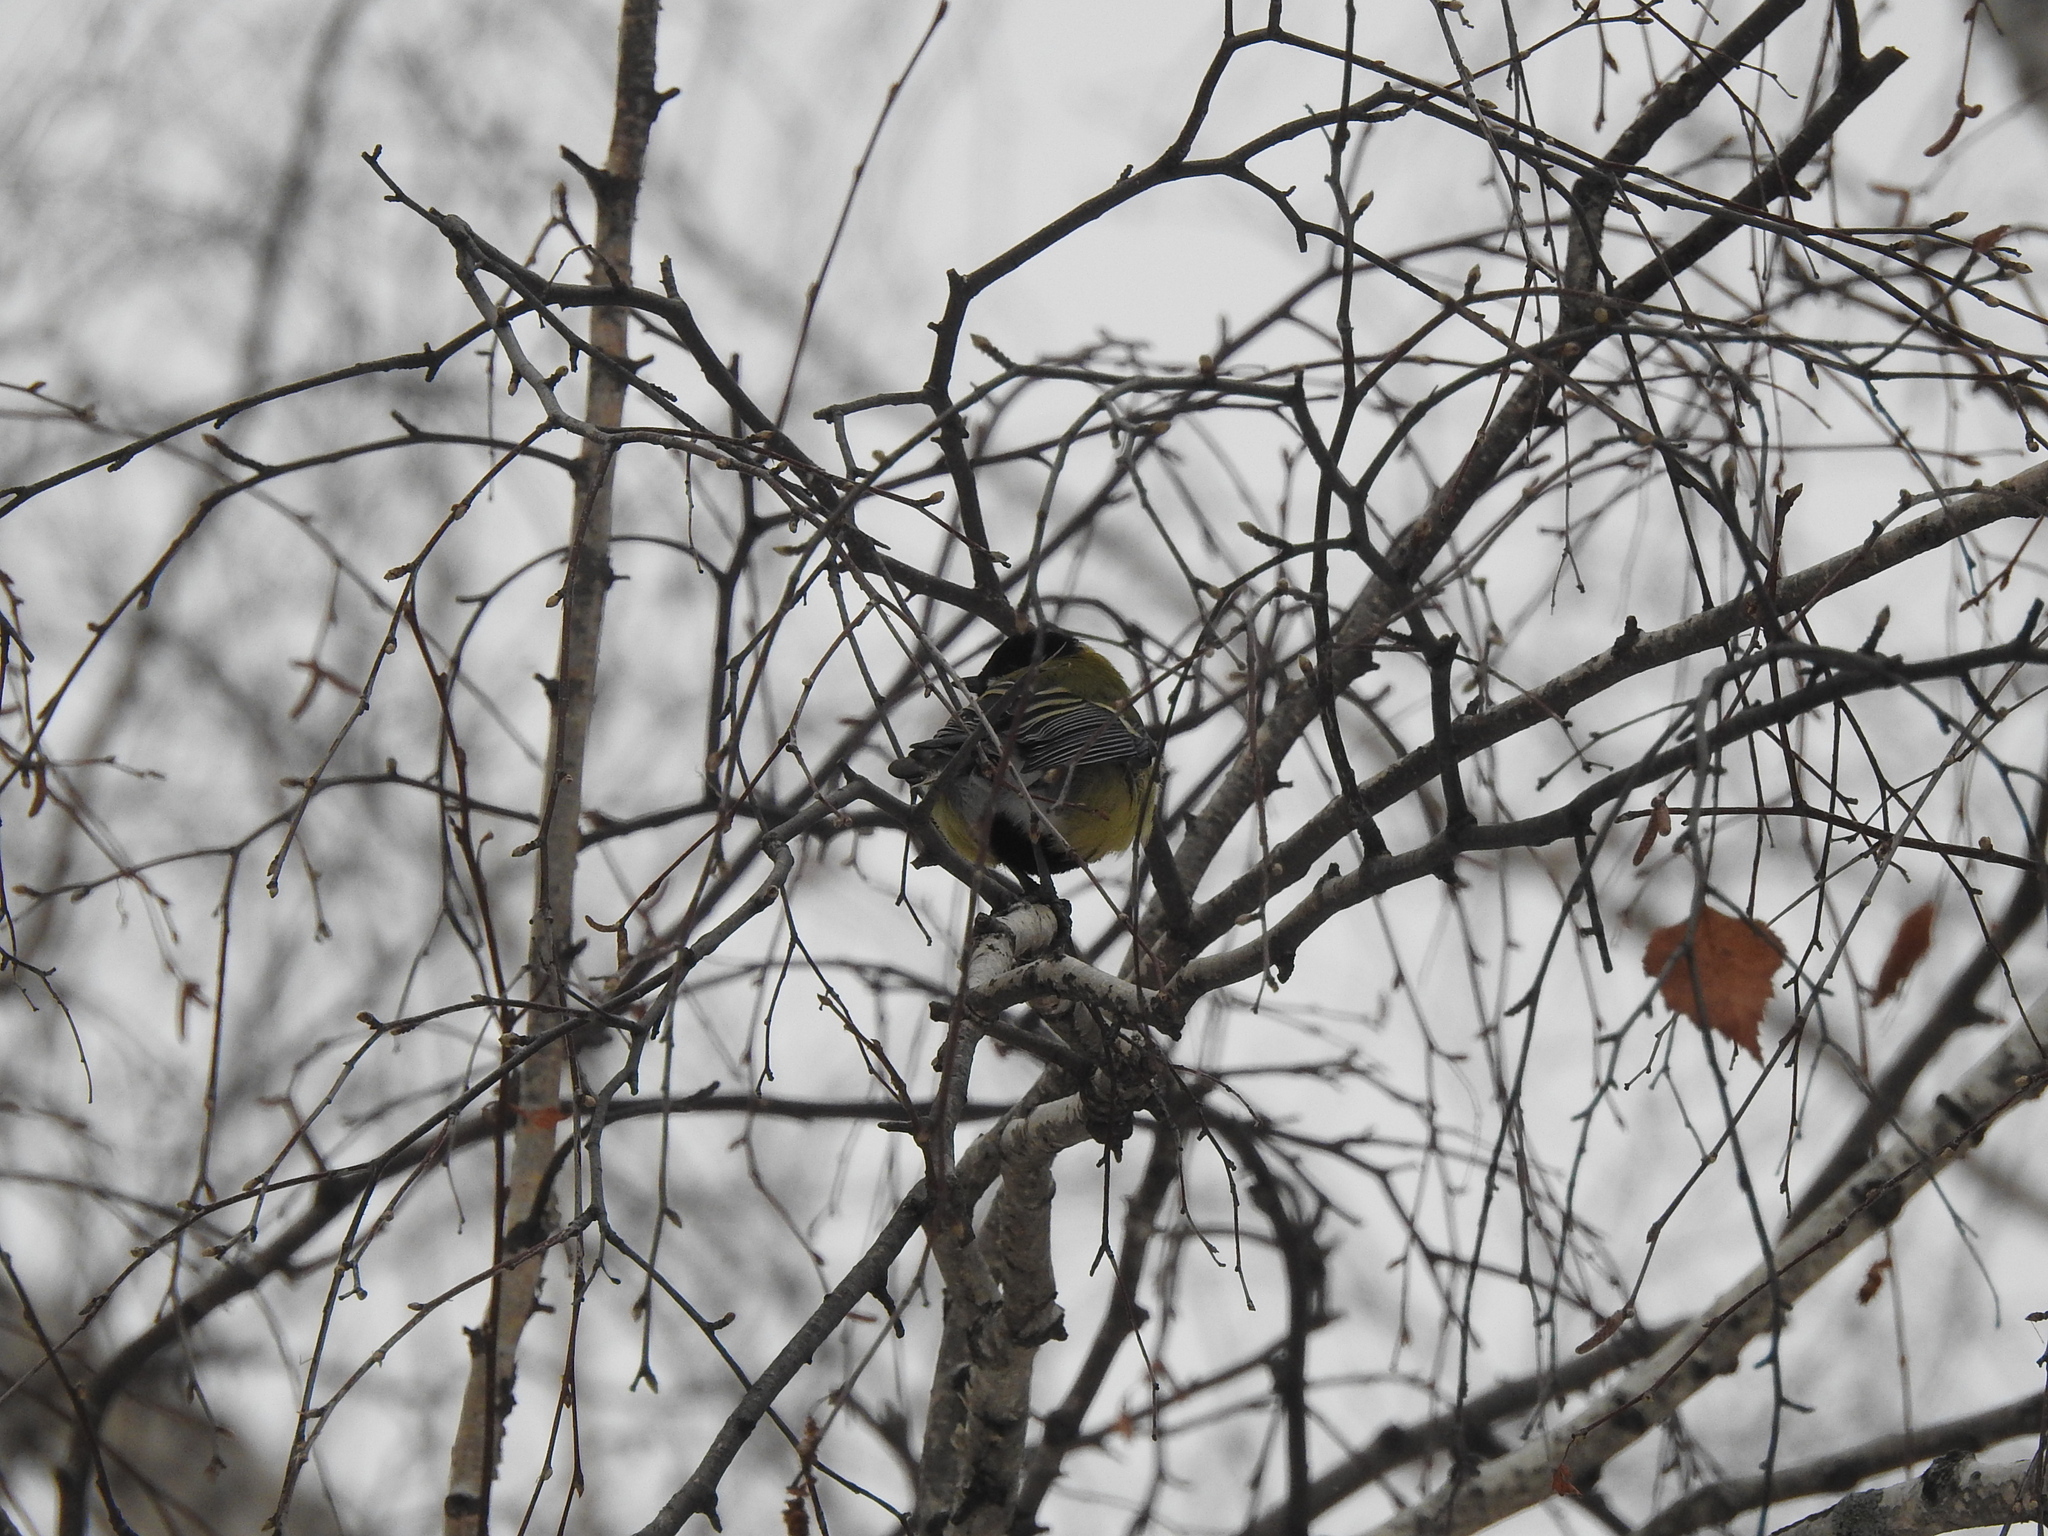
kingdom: Animalia
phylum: Chordata
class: Aves
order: Passeriformes
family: Paridae
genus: Parus
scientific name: Parus major
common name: Great tit
